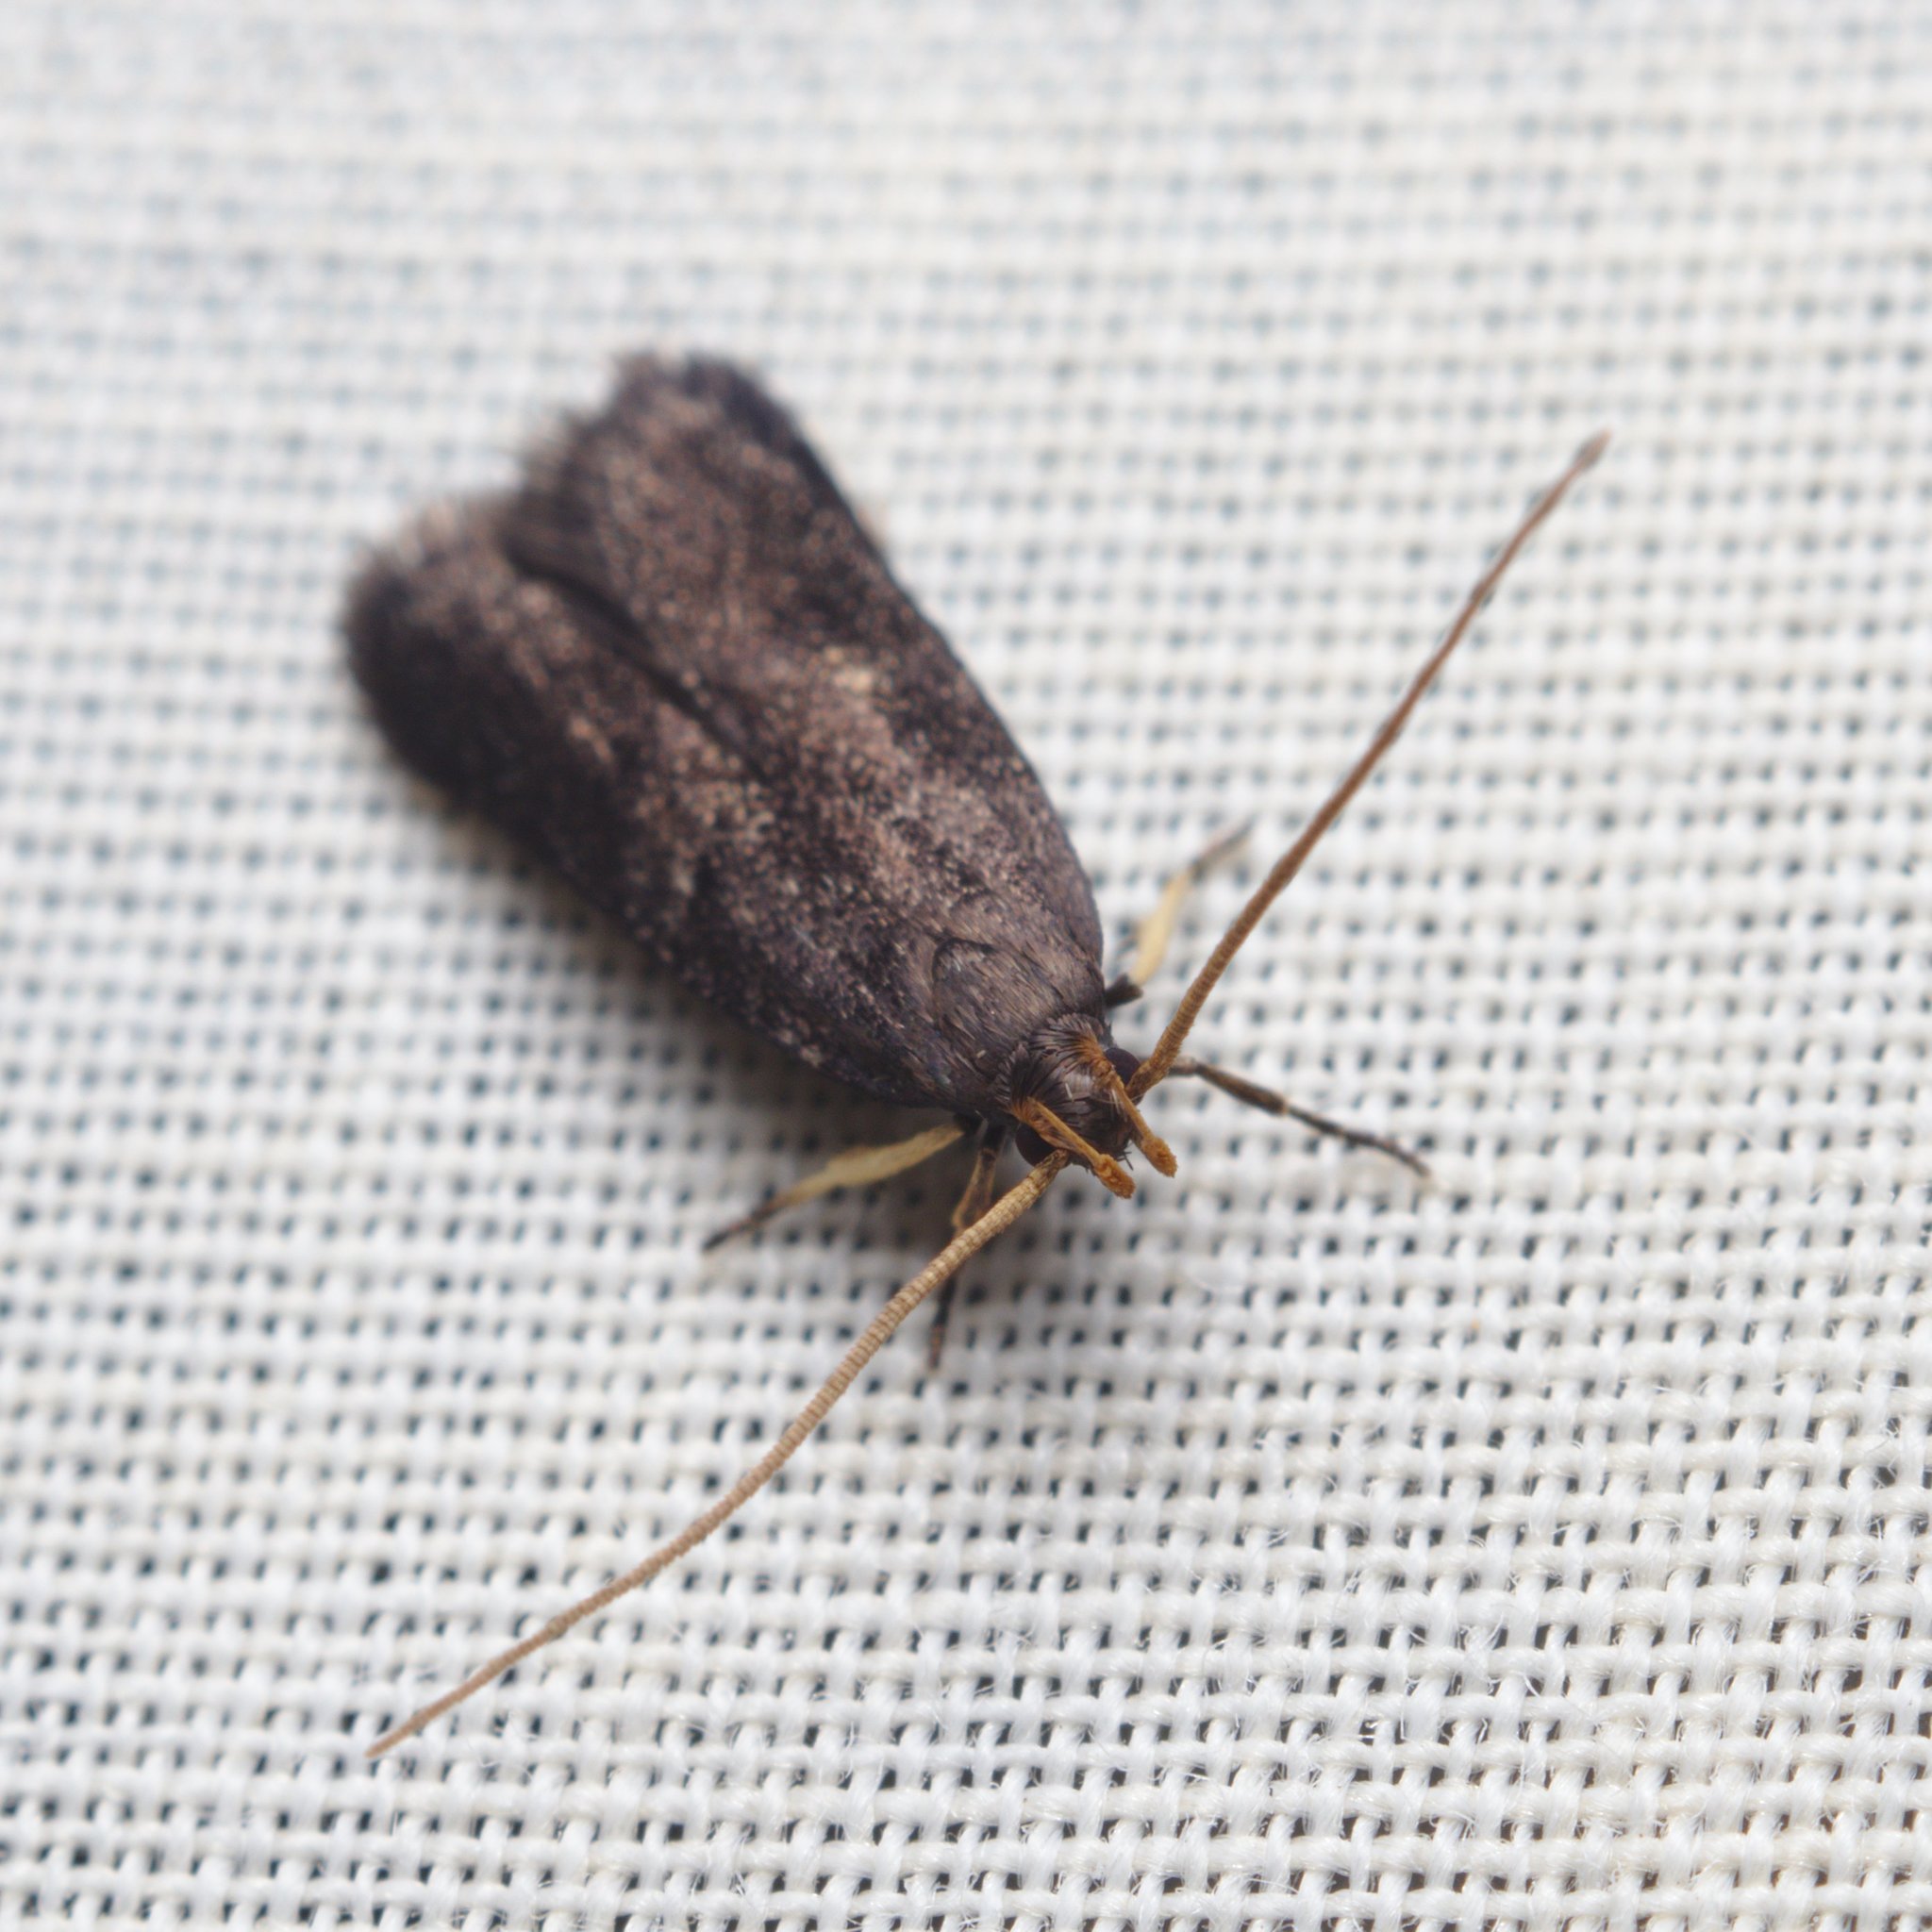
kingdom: Animalia
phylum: Arthropoda
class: Insecta
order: Lepidoptera
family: Lecithoceridae
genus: Lecithocera
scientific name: Lecithocera micromela
